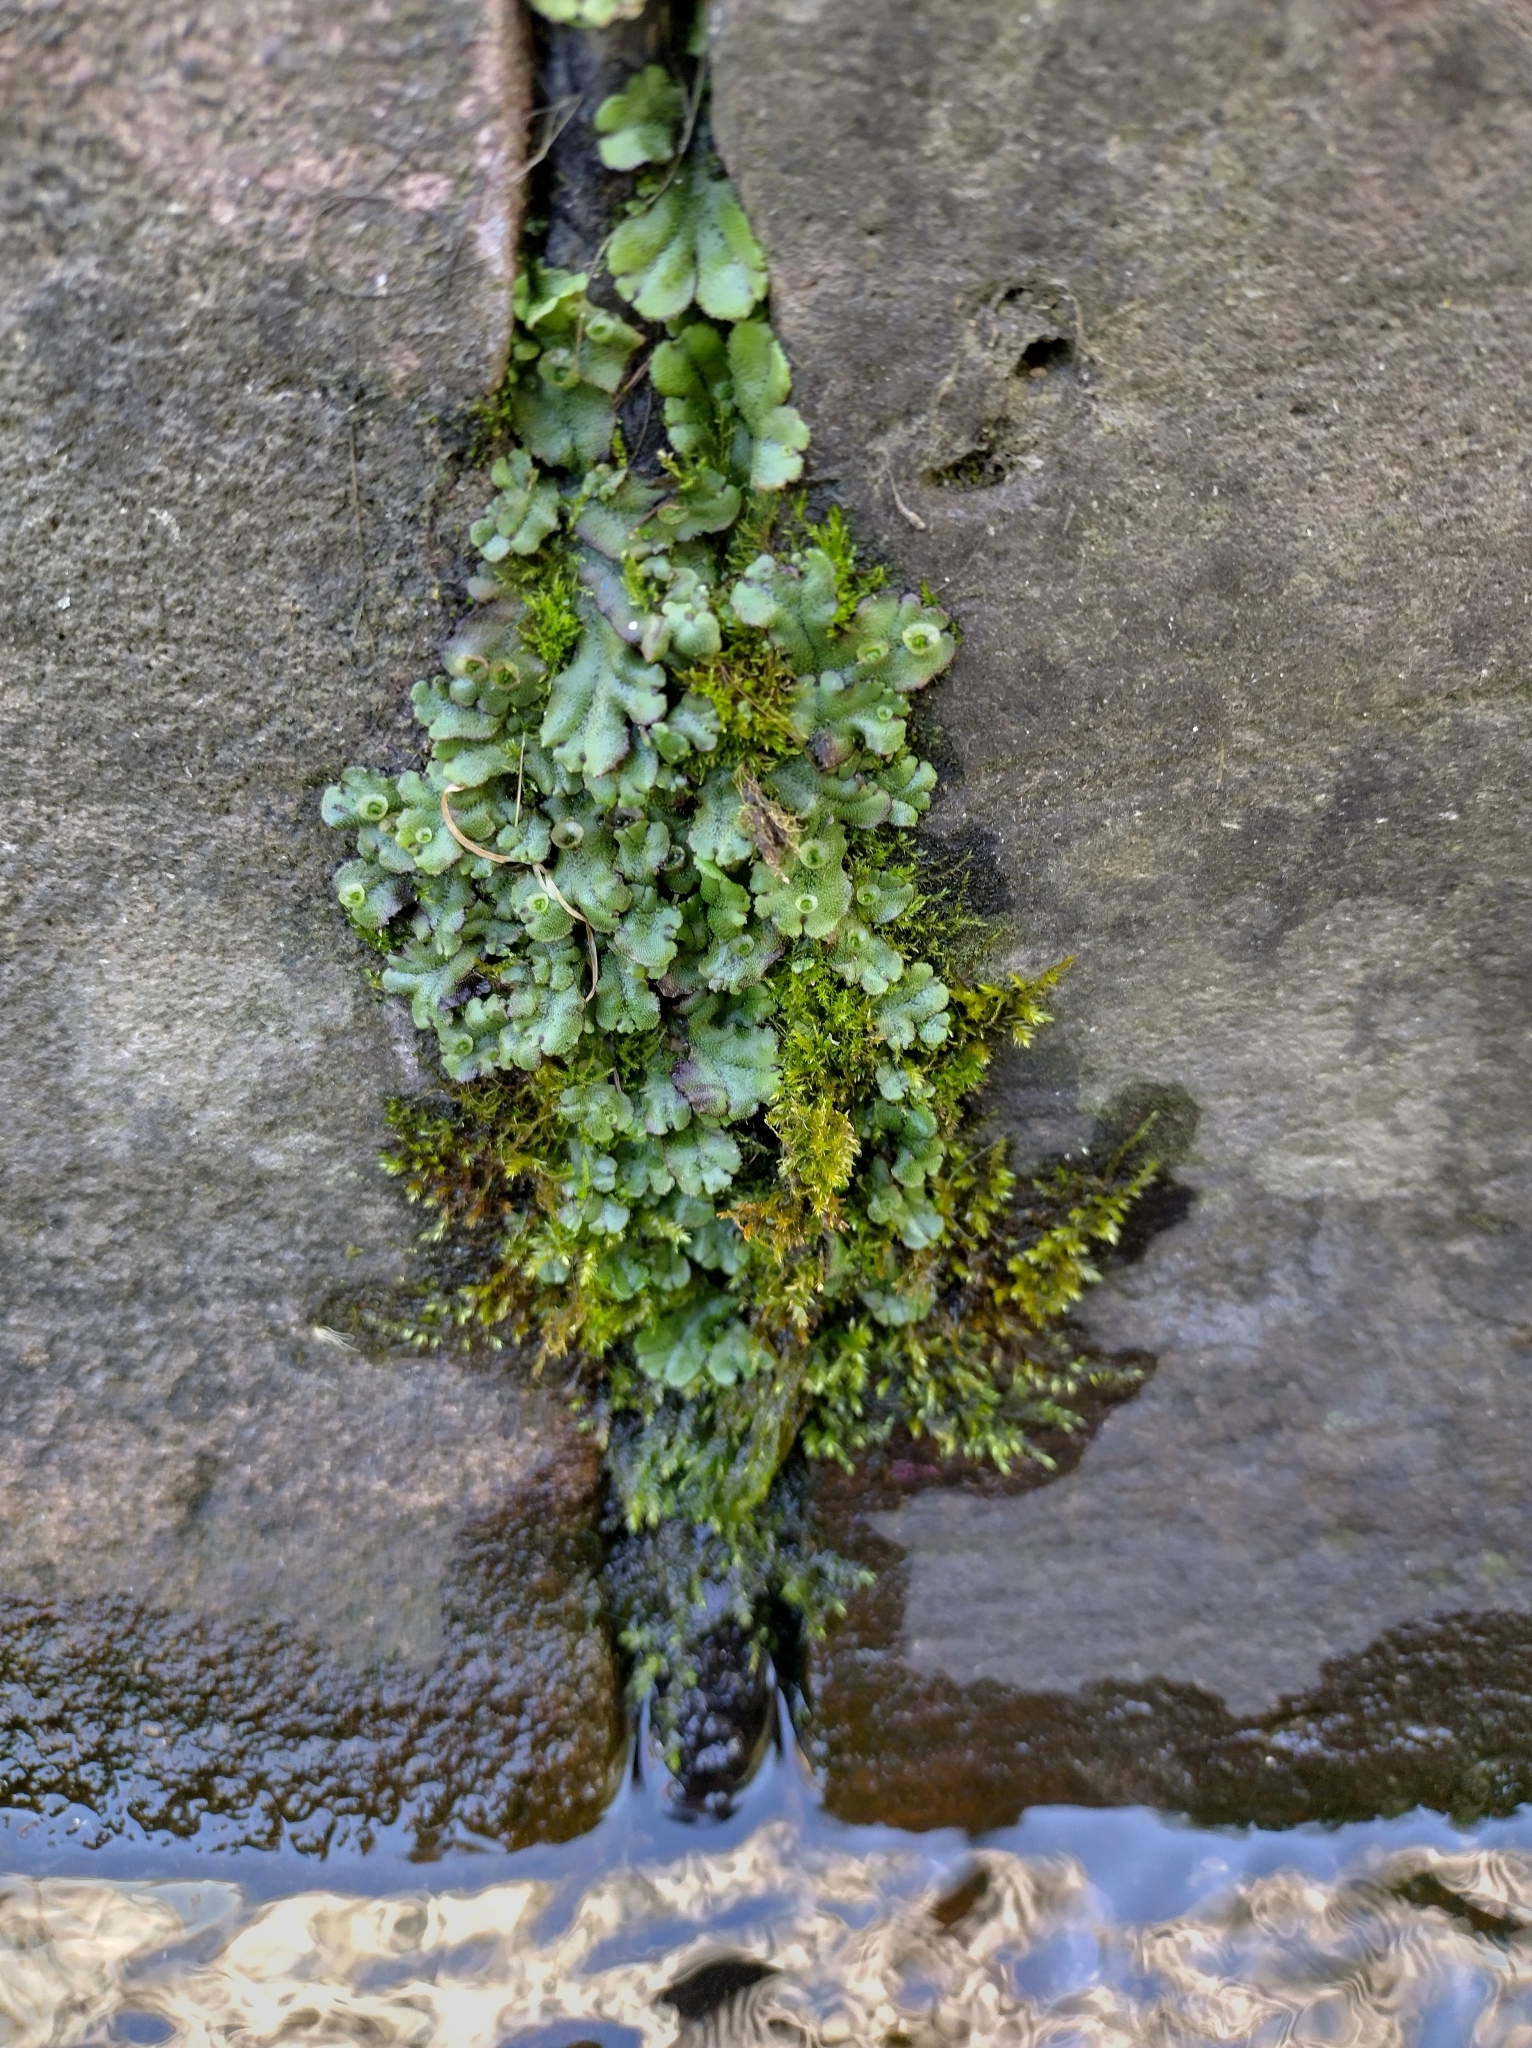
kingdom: Plantae
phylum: Marchantiophyta
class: Marchantiopsida
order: Marchantiales
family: Marchantiaceae
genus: Marchantia
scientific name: Marchantia polymorpha
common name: Common liverwort
